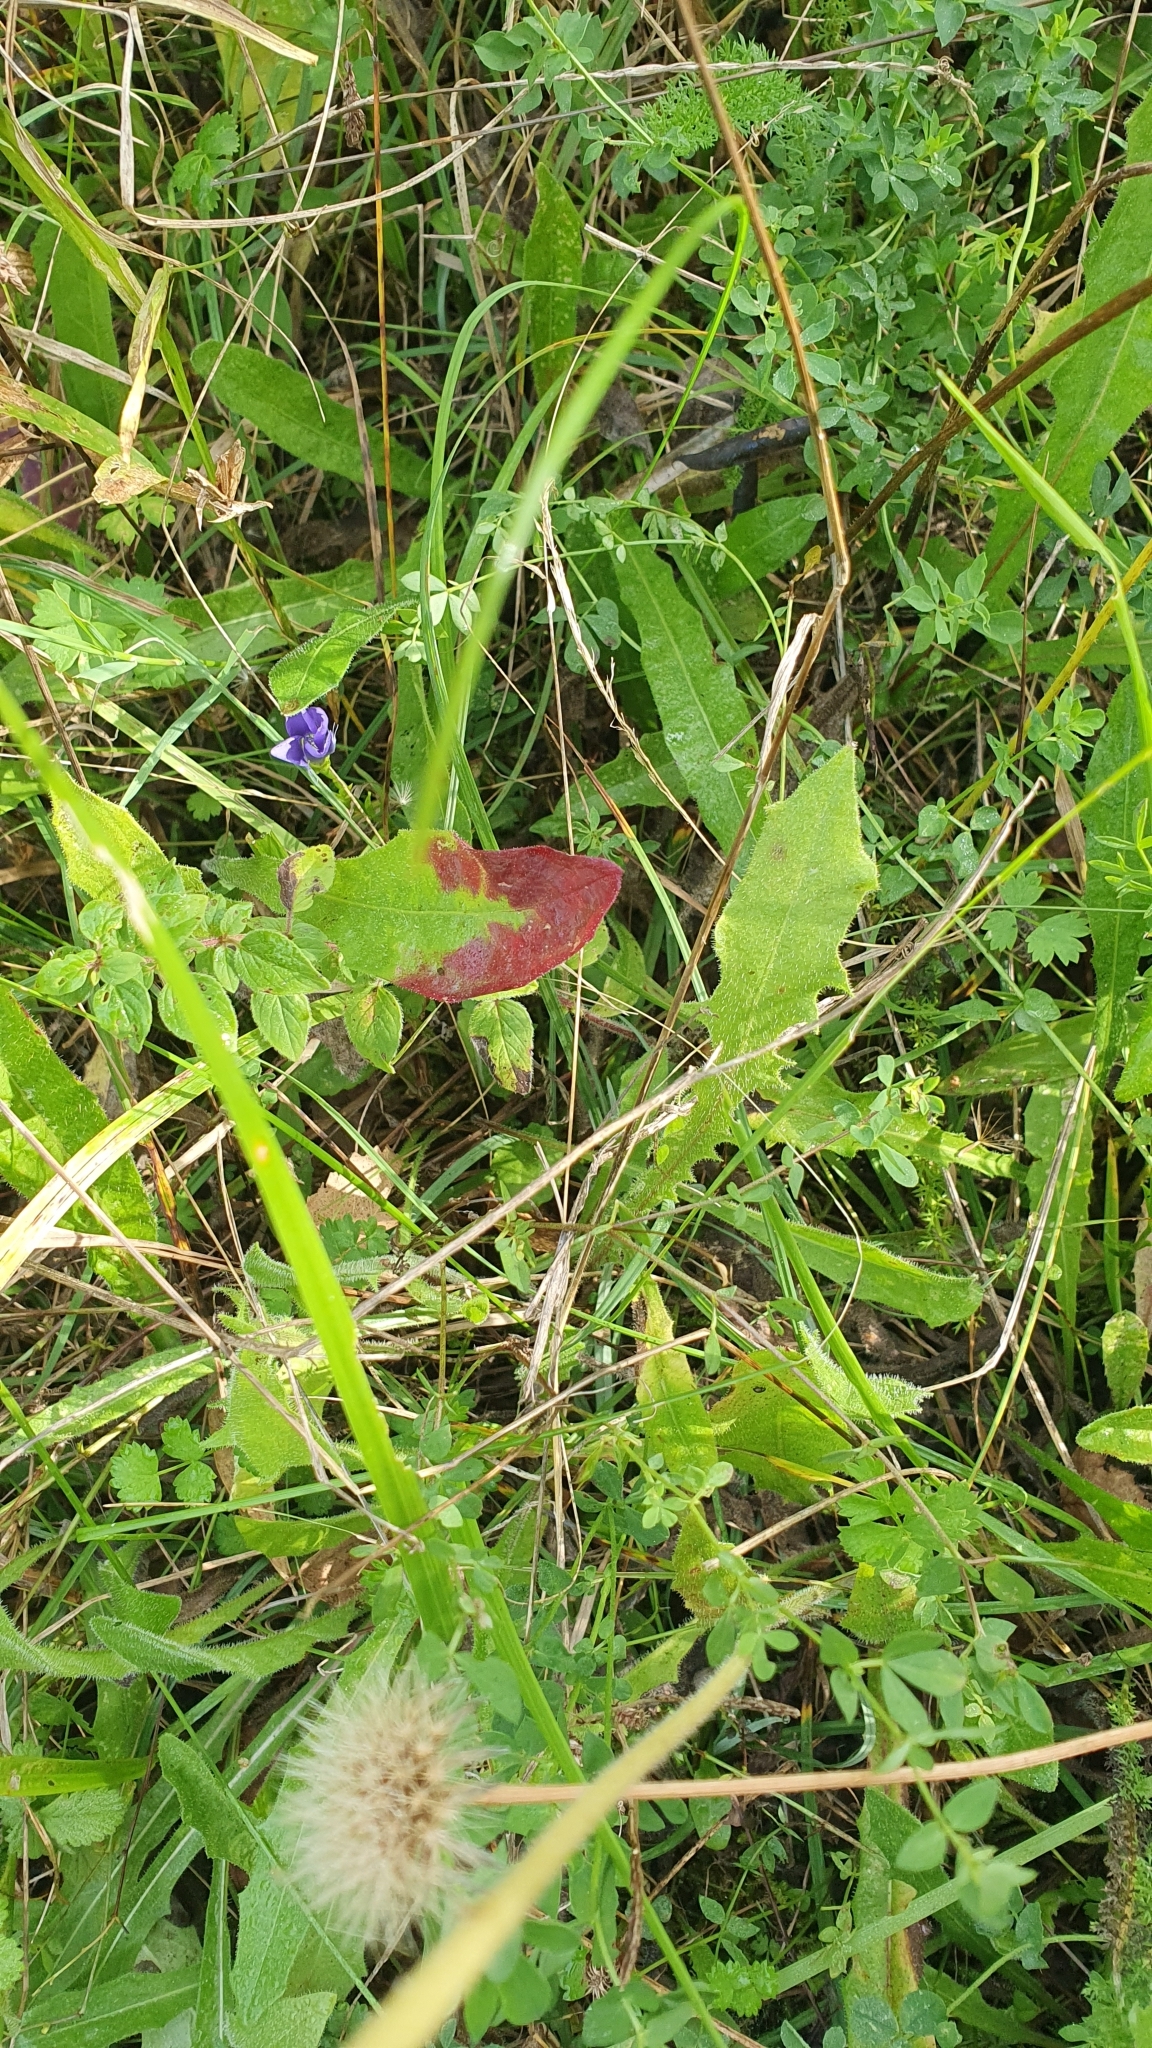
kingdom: Plantae
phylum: Tracheophyta
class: Magnoliopsida
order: Gentianales
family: Gentianaceae
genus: Gentianopsis
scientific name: Gentianopsis ciliata
